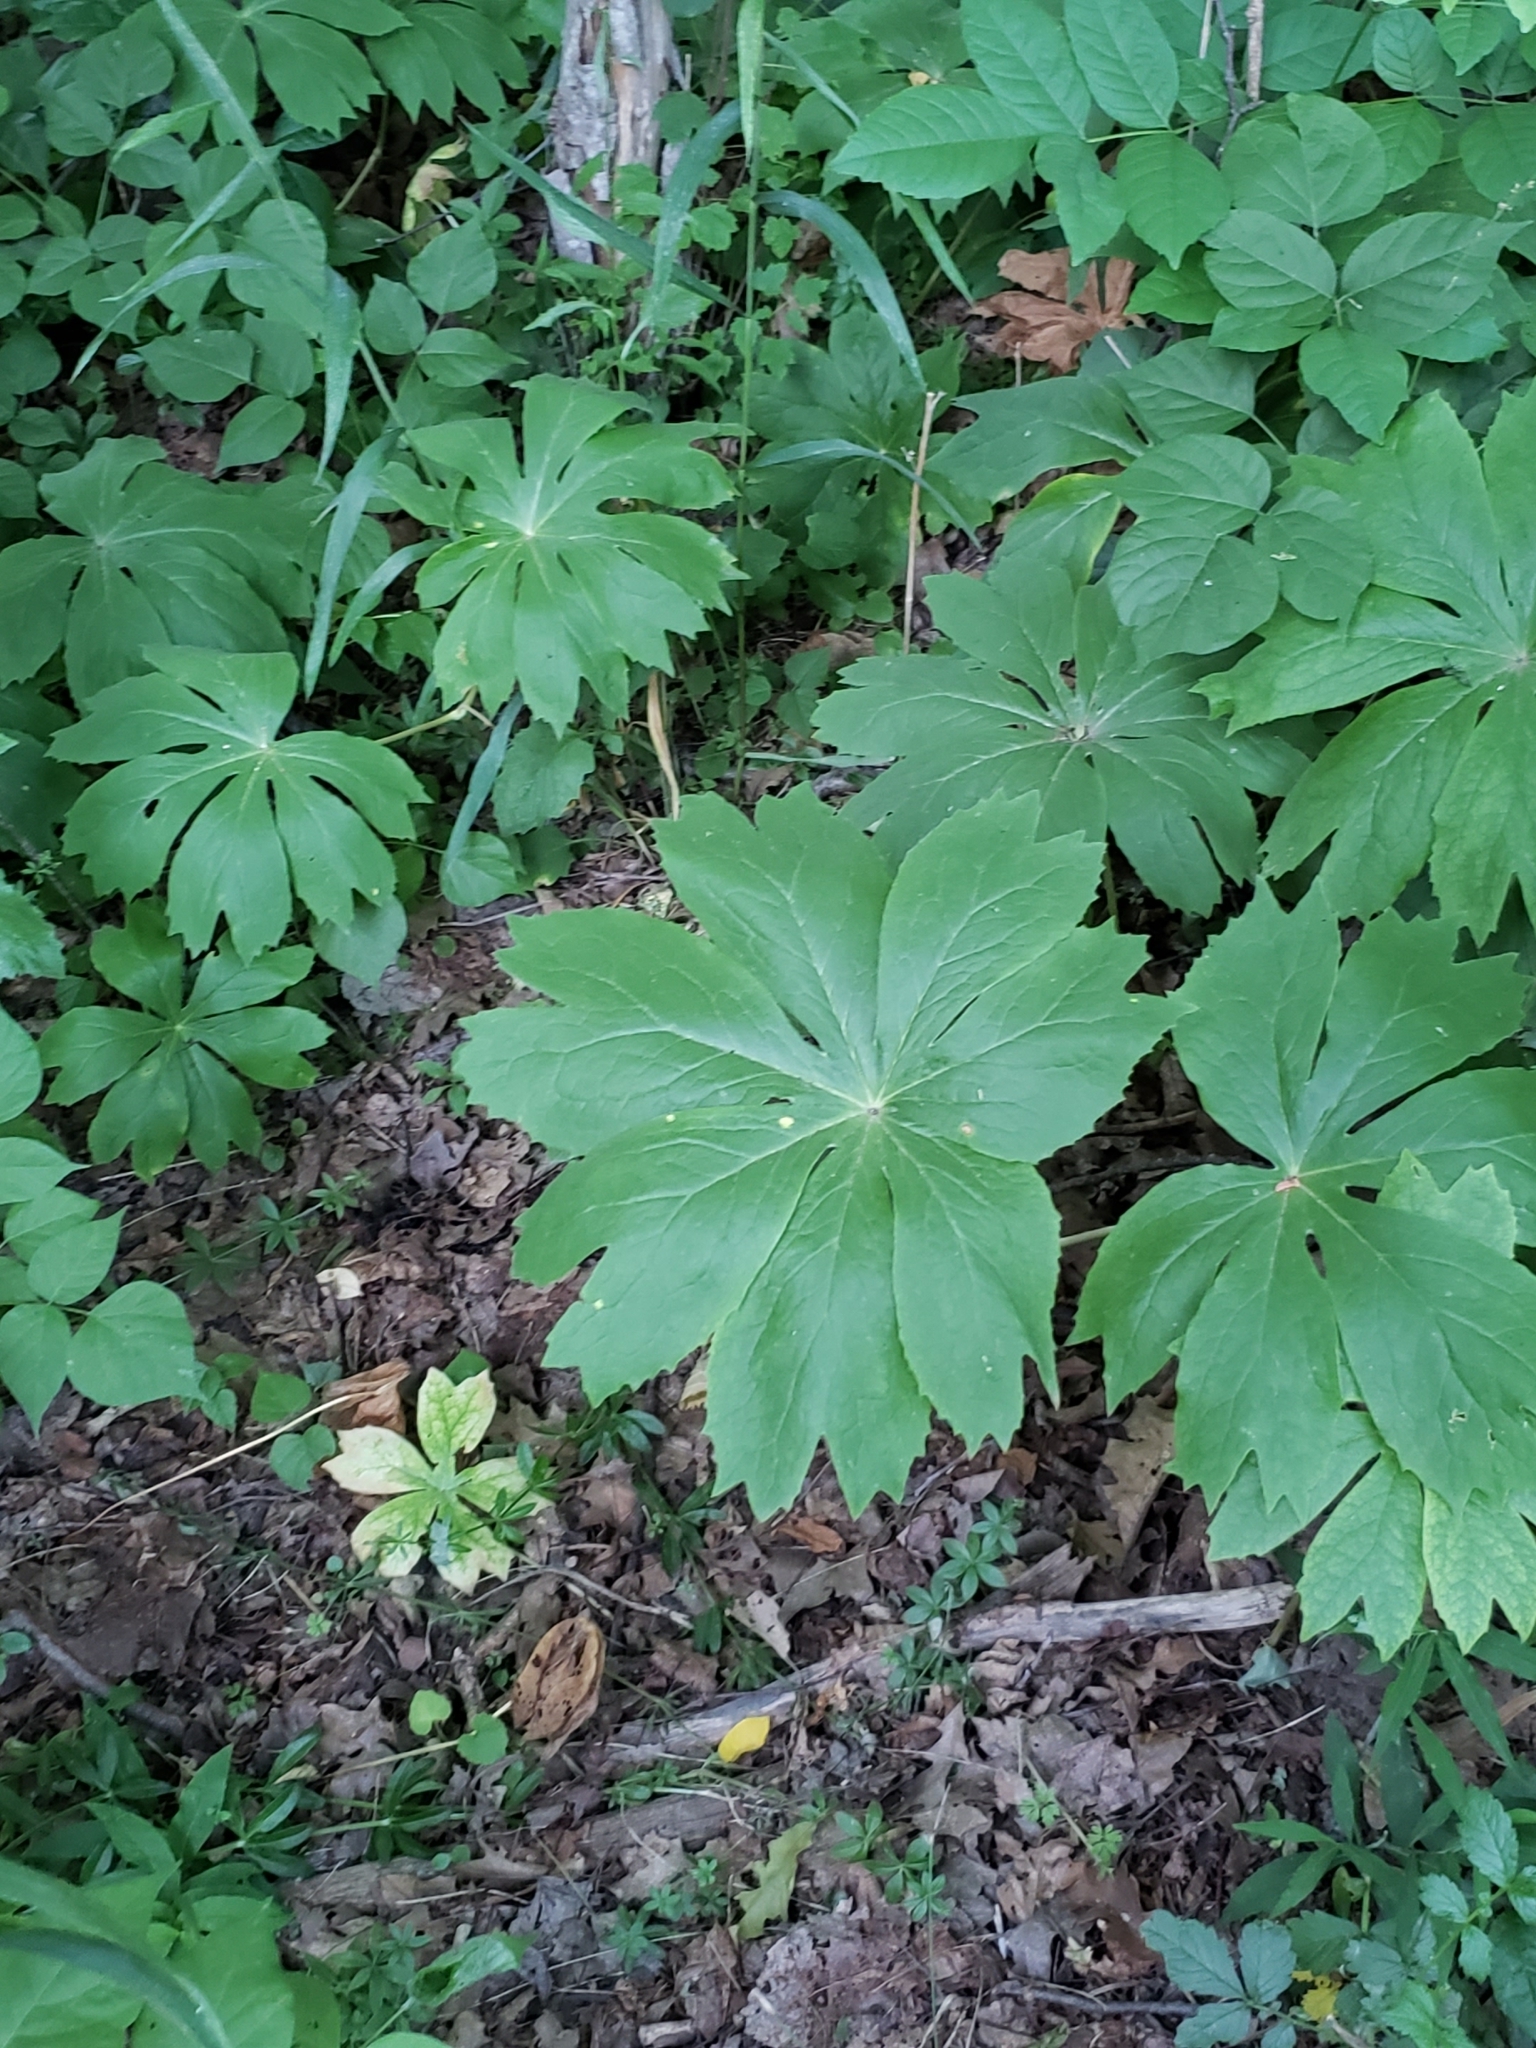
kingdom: Plantae
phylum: Tracheophyta
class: Magnoliopsida
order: Ranunculales
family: Berberidaceae
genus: Podophyllum
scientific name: Podophyllum peltatum
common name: Wild mandrake
